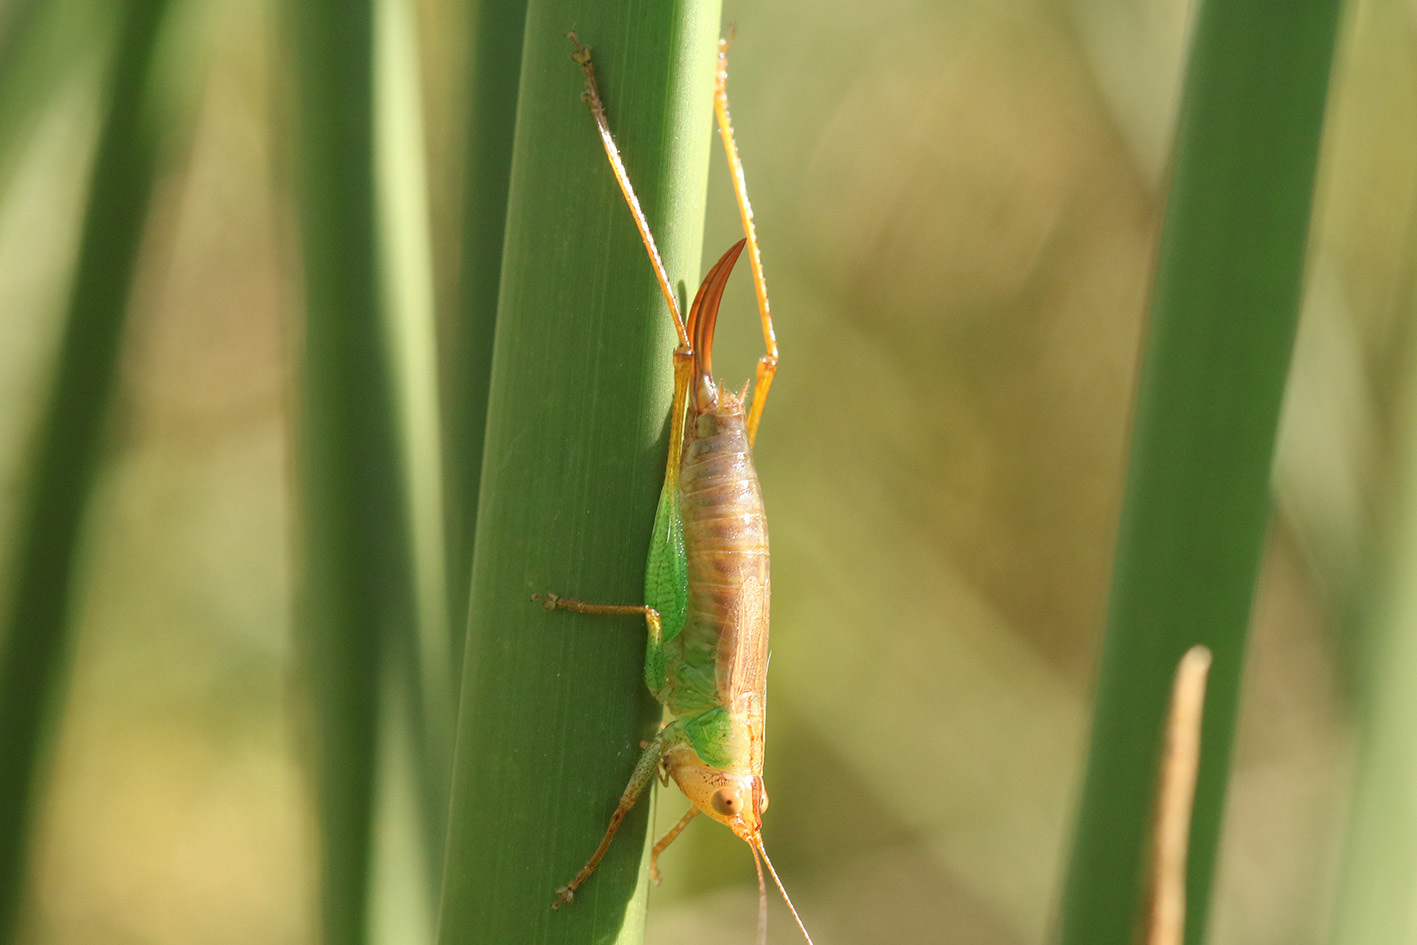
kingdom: Animalia
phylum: Arthropoda
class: Insecta
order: Orthoptera
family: Tettigoniidae
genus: Conocephalus
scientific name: Conocephalus cinnamonifrons
